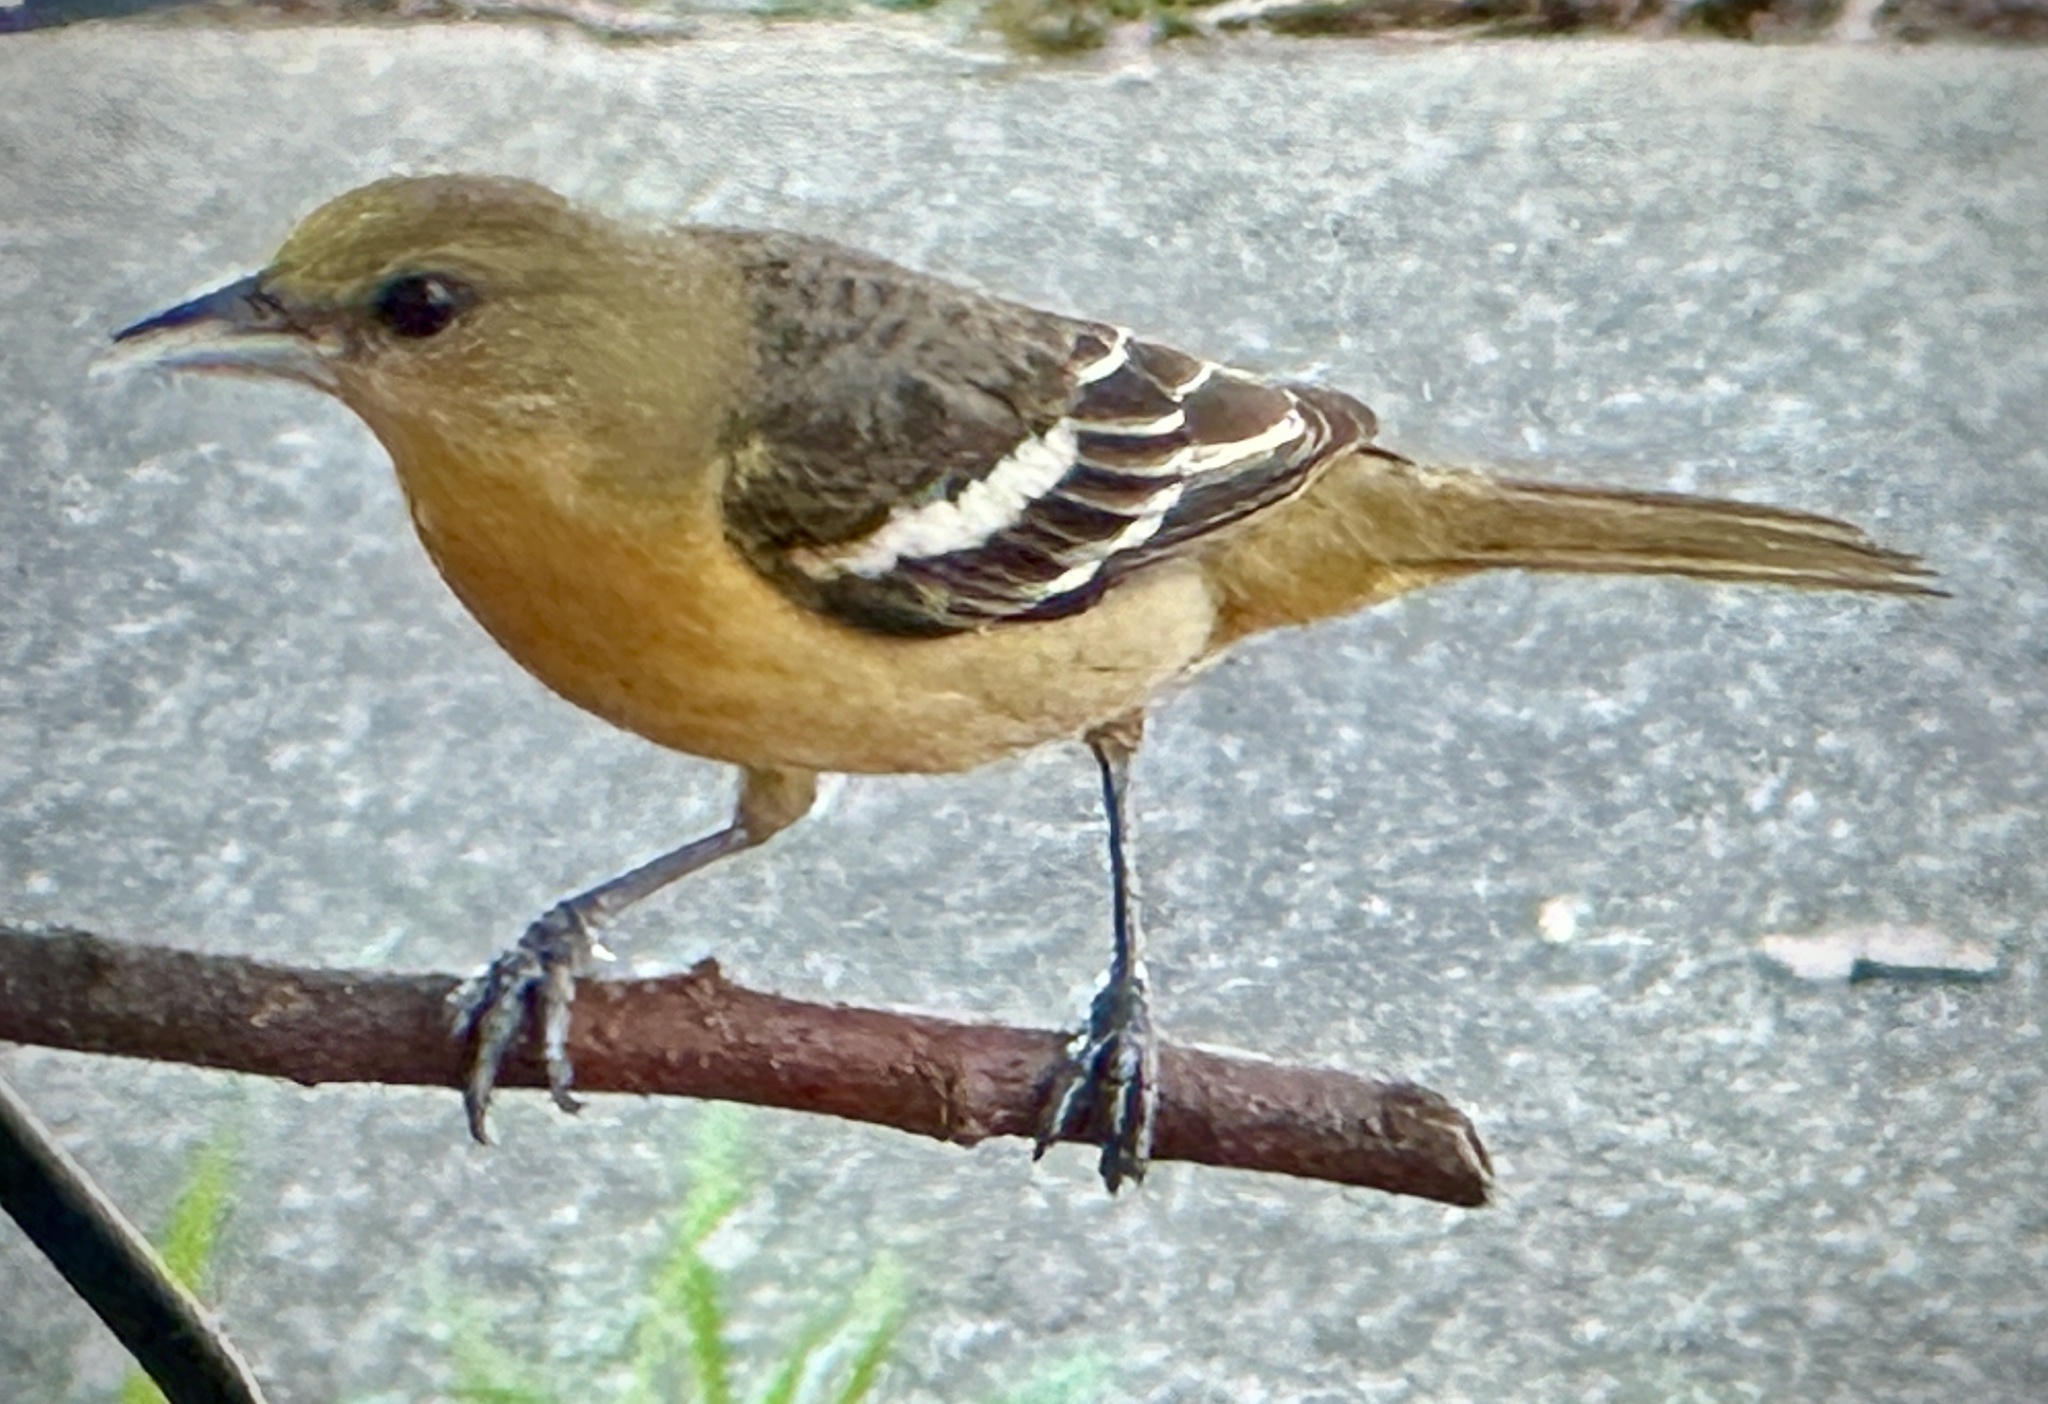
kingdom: Animalia
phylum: Chordata
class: Aves
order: Passeriformes
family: Icteridae
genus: Icterus
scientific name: Icterus galbula
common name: Baltimore oriole
